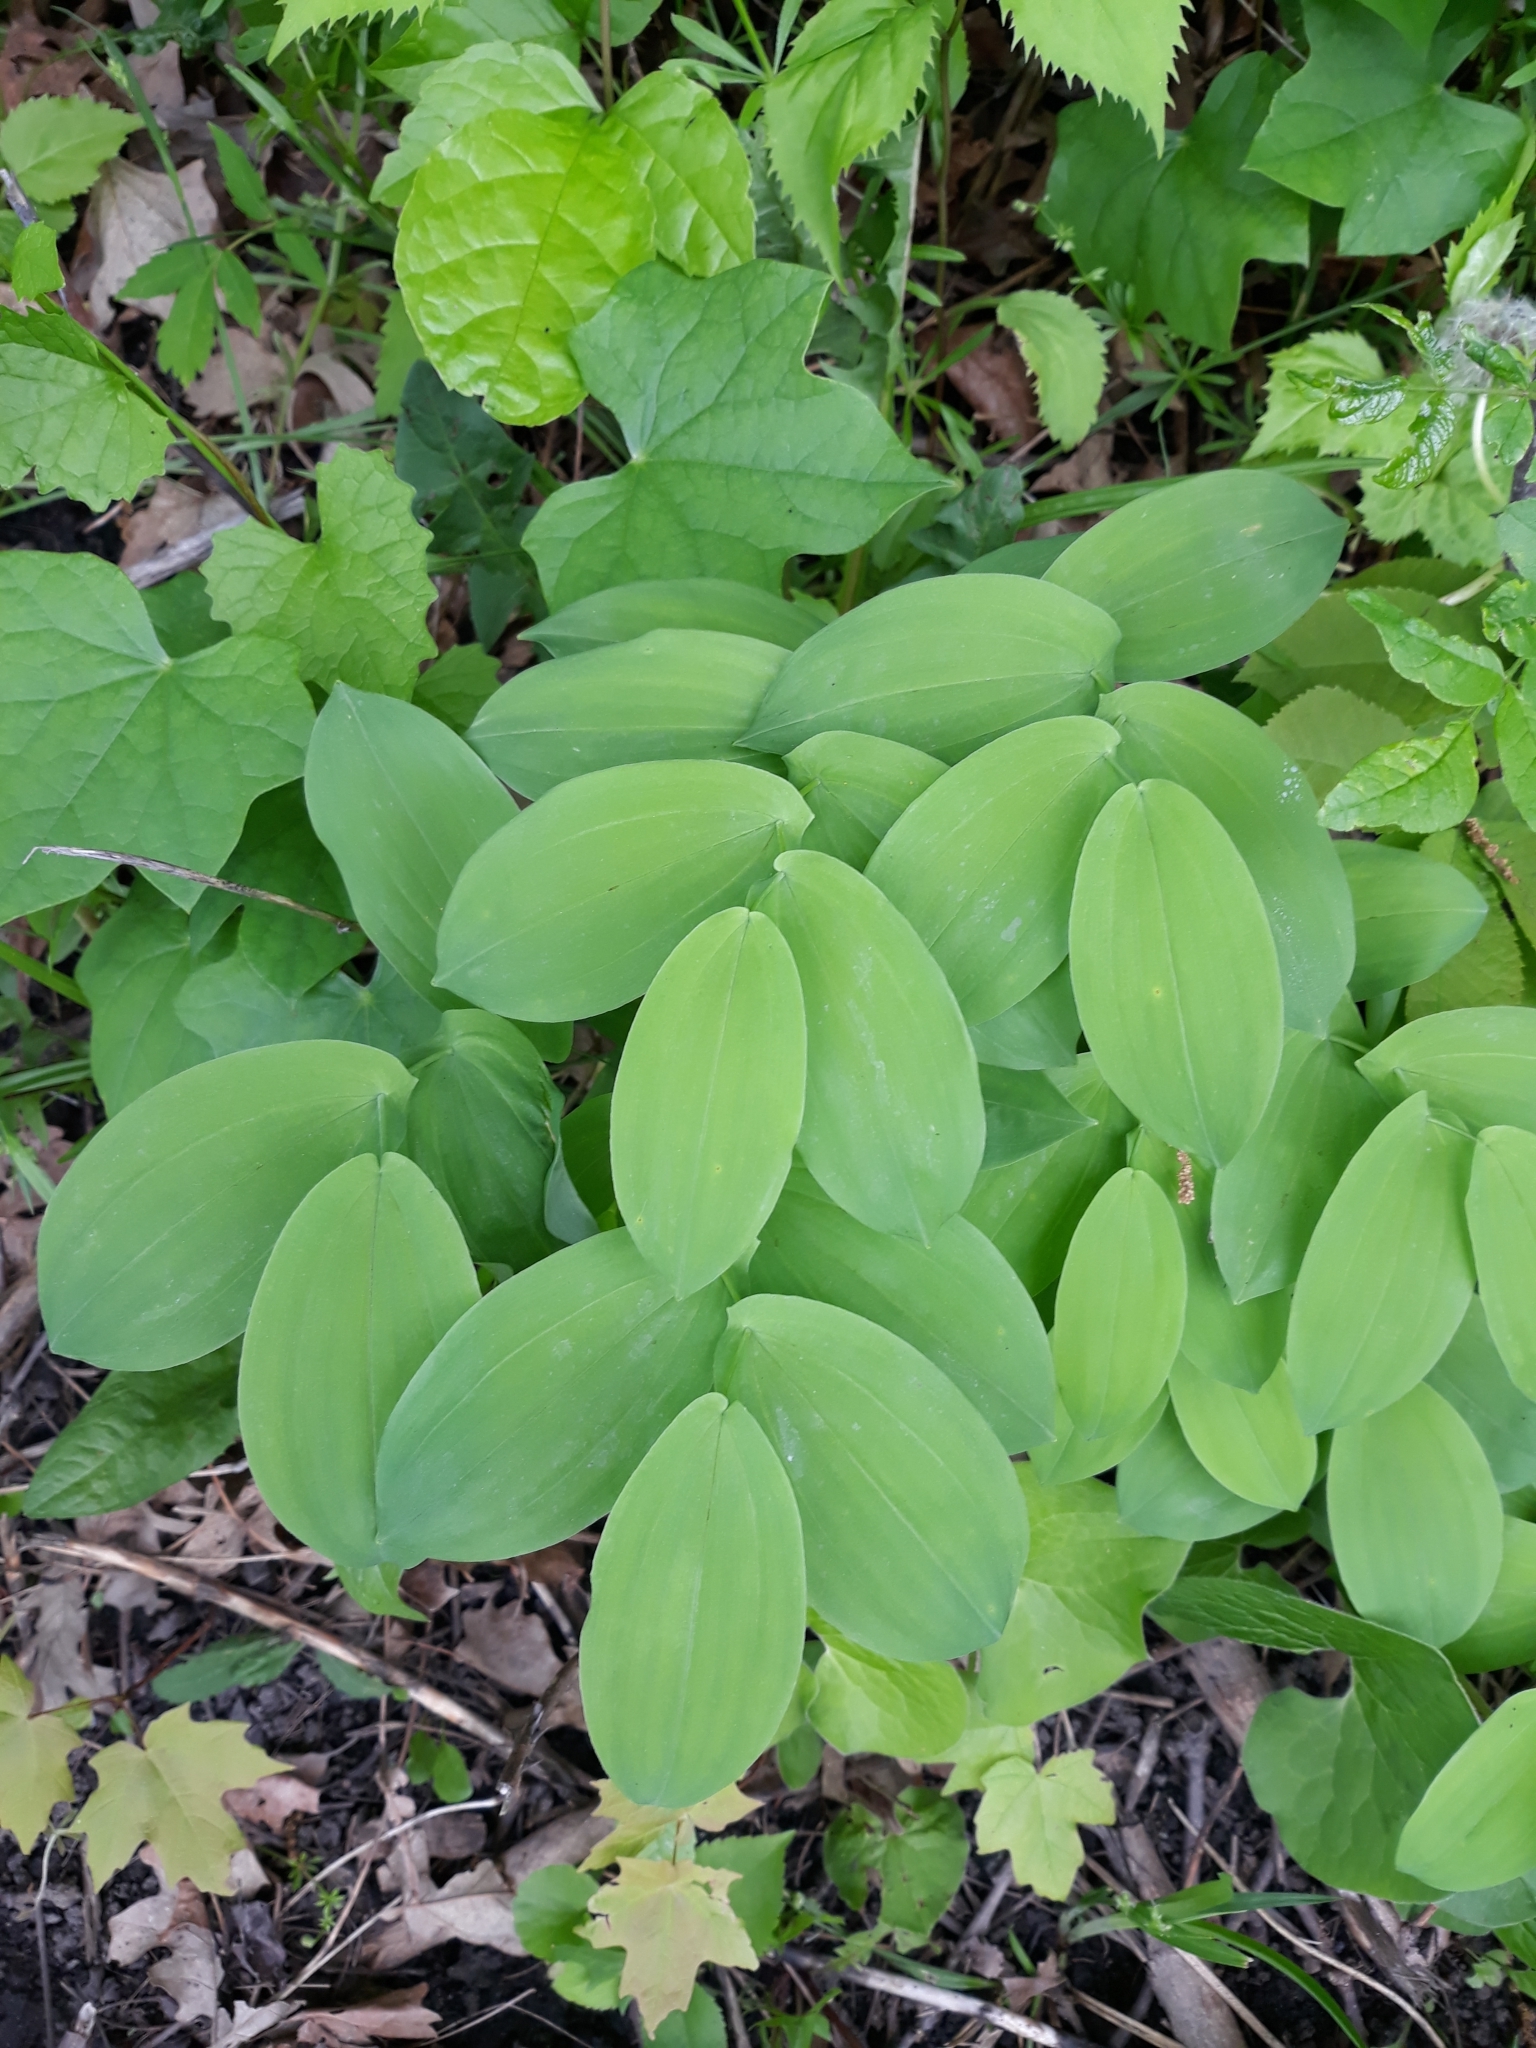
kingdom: Plantae
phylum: Tracheophyta
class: Liliopsida
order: Liliales
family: Colchicaceae
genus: Uvularia
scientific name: Uvularia grandiflora
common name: Bellwort
